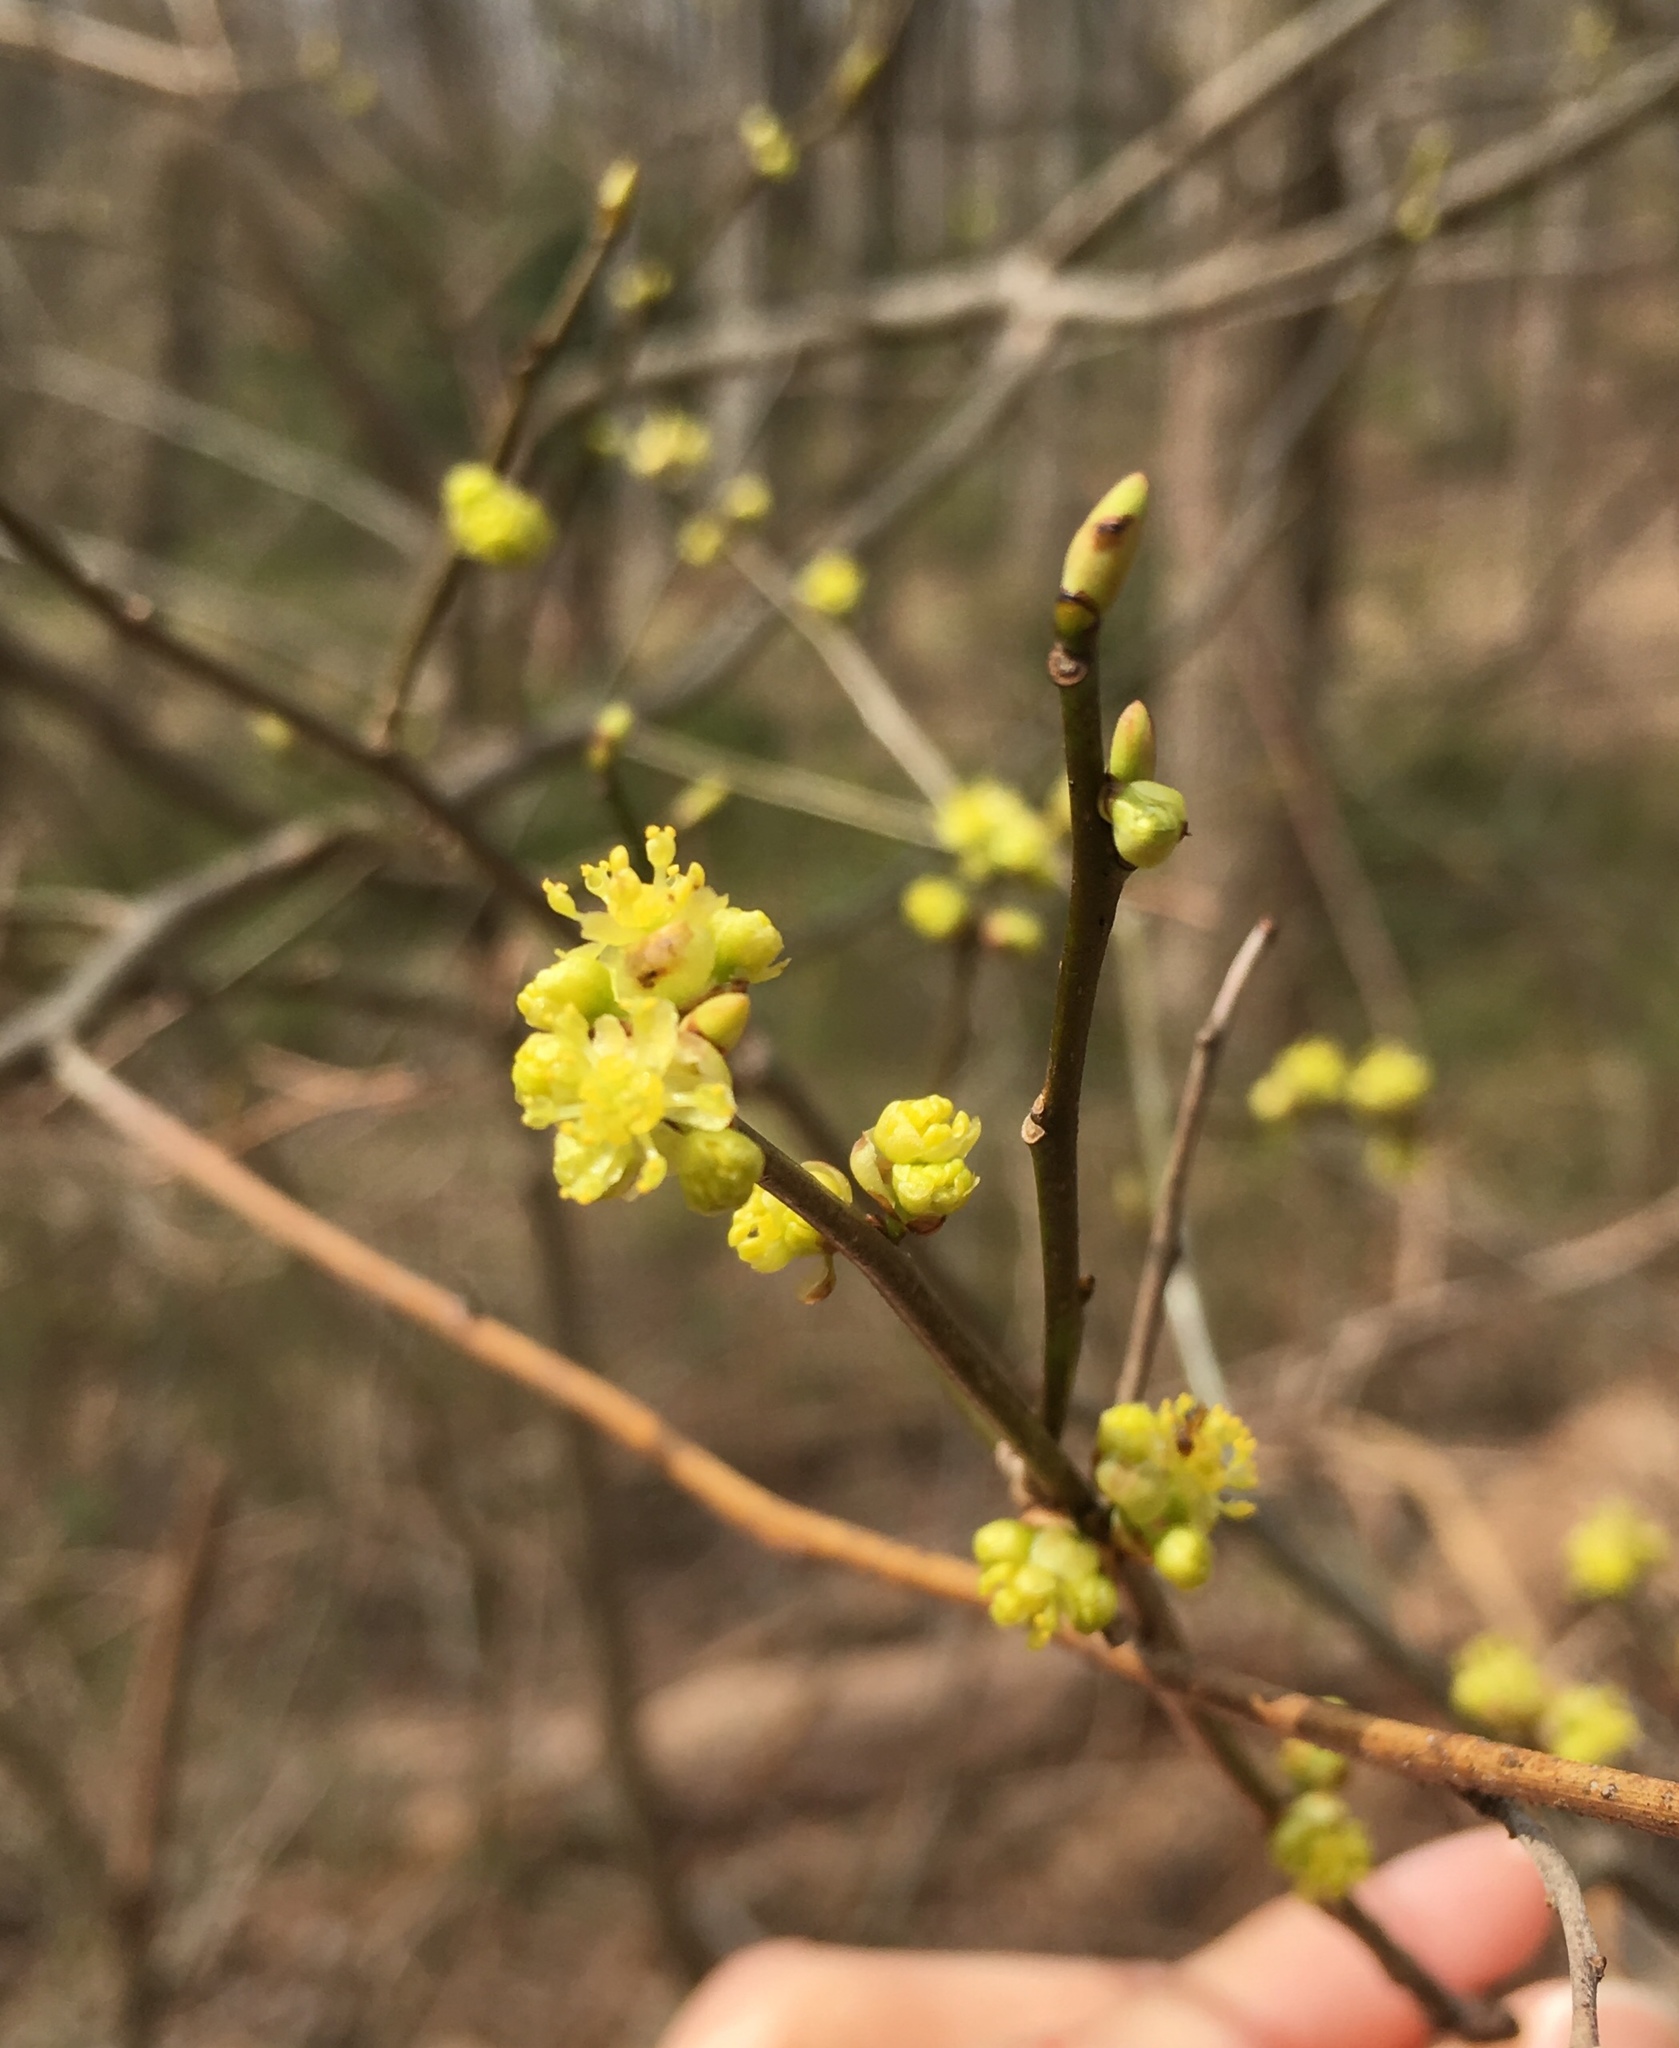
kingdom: Plantae
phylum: Tracheophyta
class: Magnoliopsida
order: Laurales
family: Lauraceae
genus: Lindera
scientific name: Lindera benzoin
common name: Spicebush
